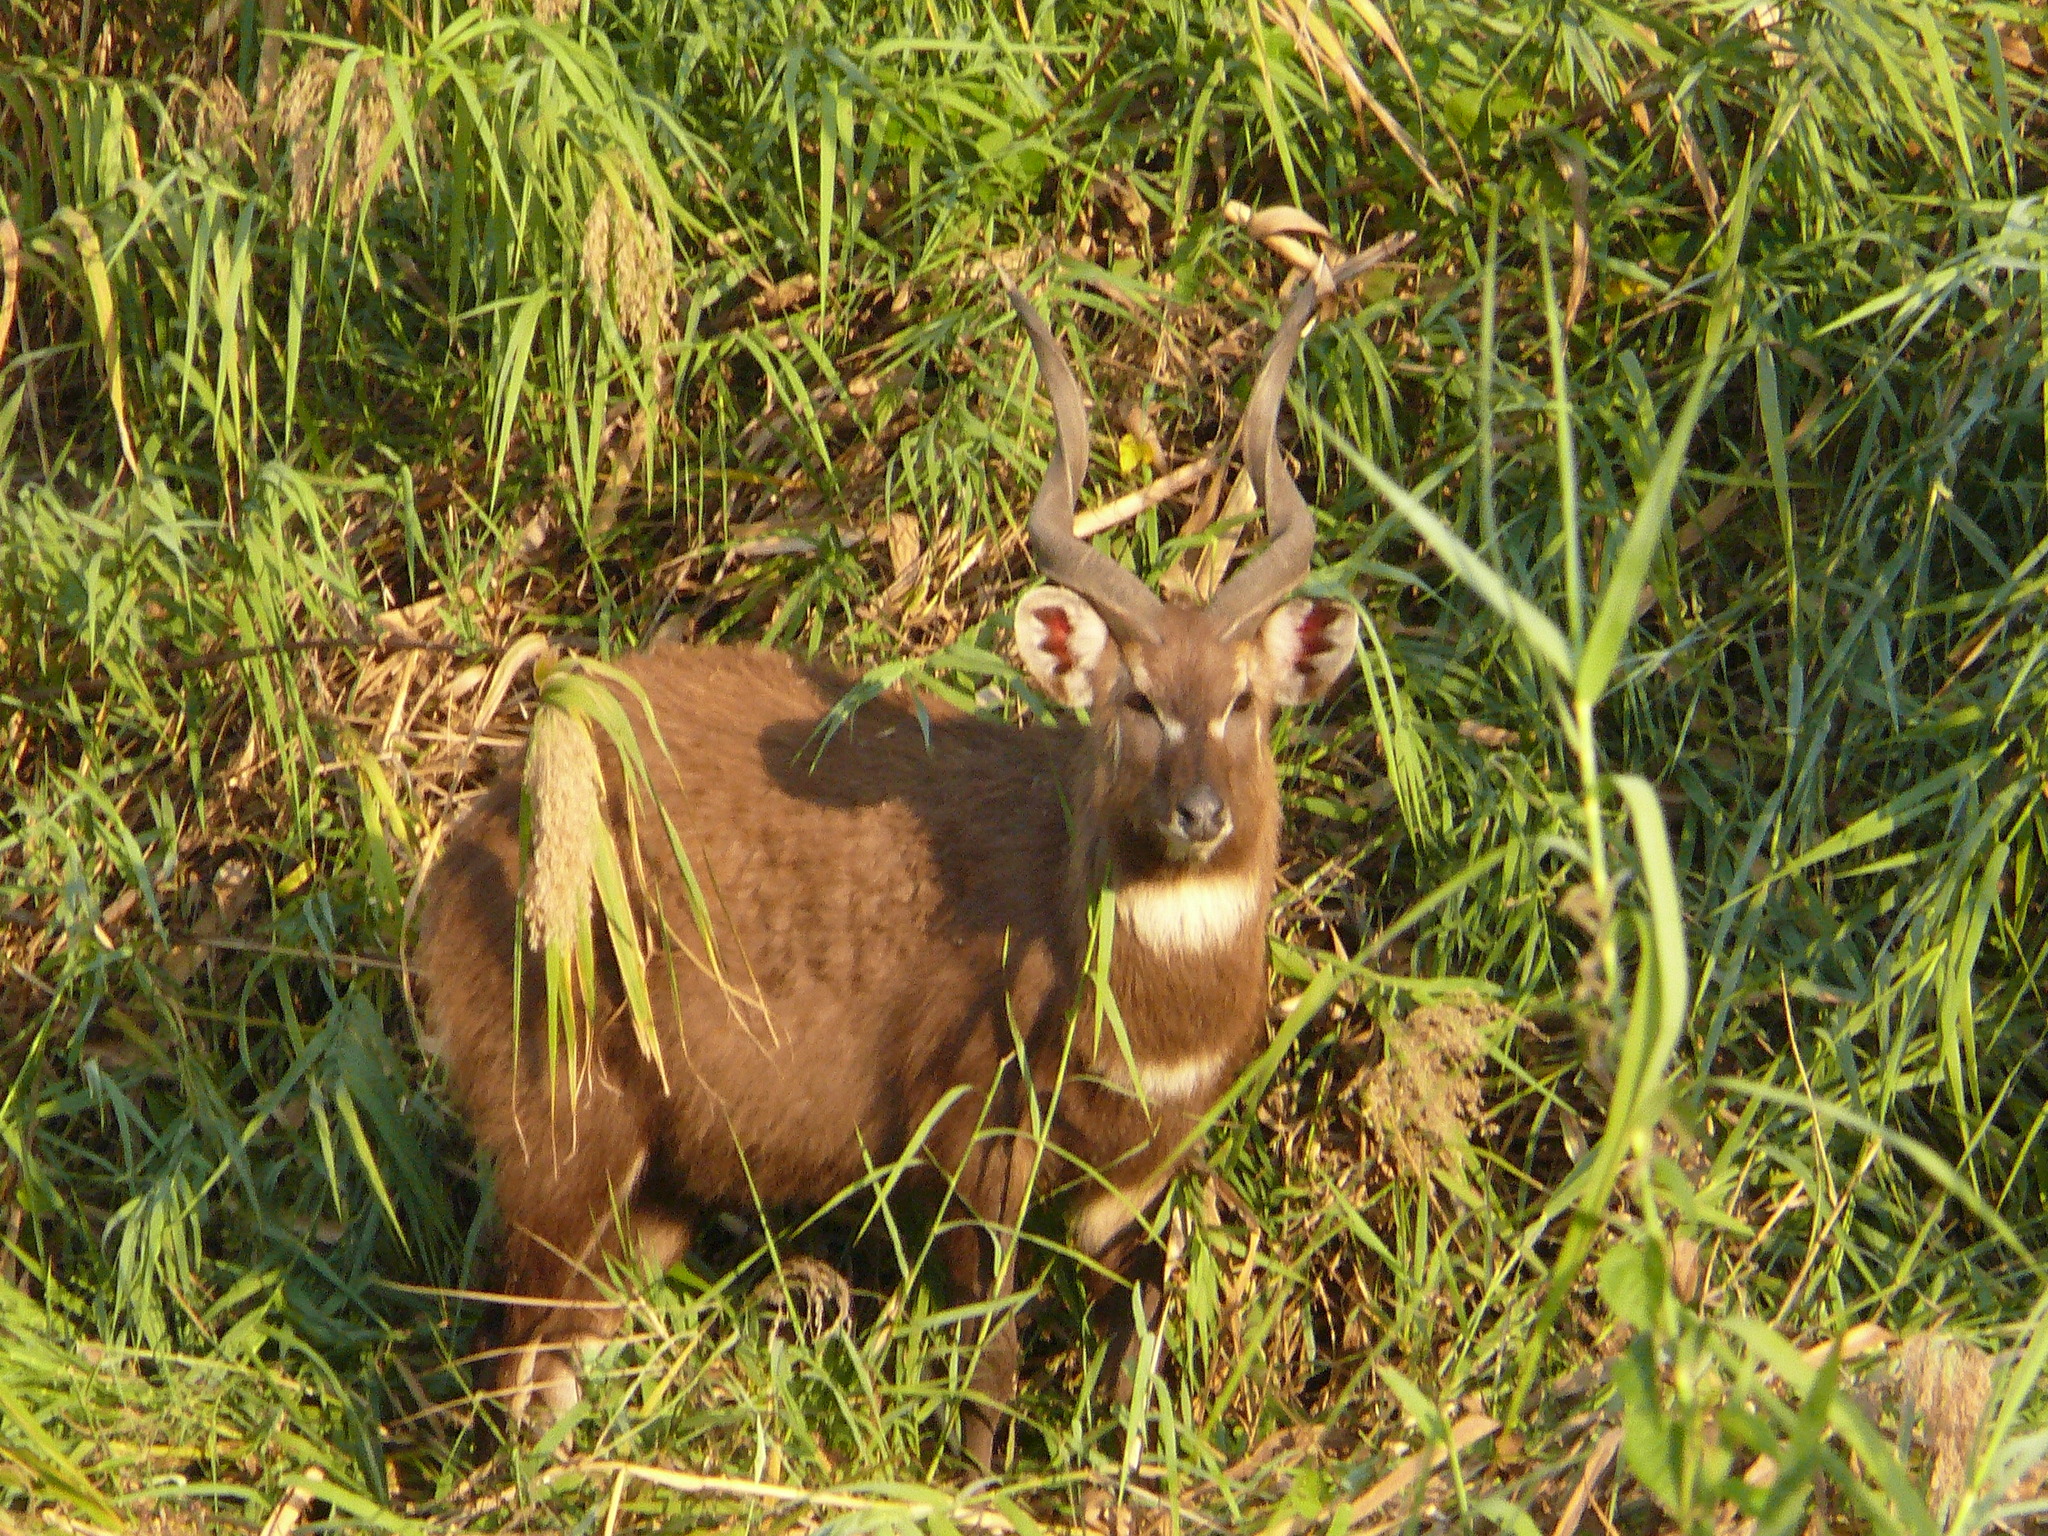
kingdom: Animalia
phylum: Chordata
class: Mammalia
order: Artiodactyla
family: Bovidae
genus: Tragelaphus
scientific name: Tragelaphus spekii
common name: Sitatunga
